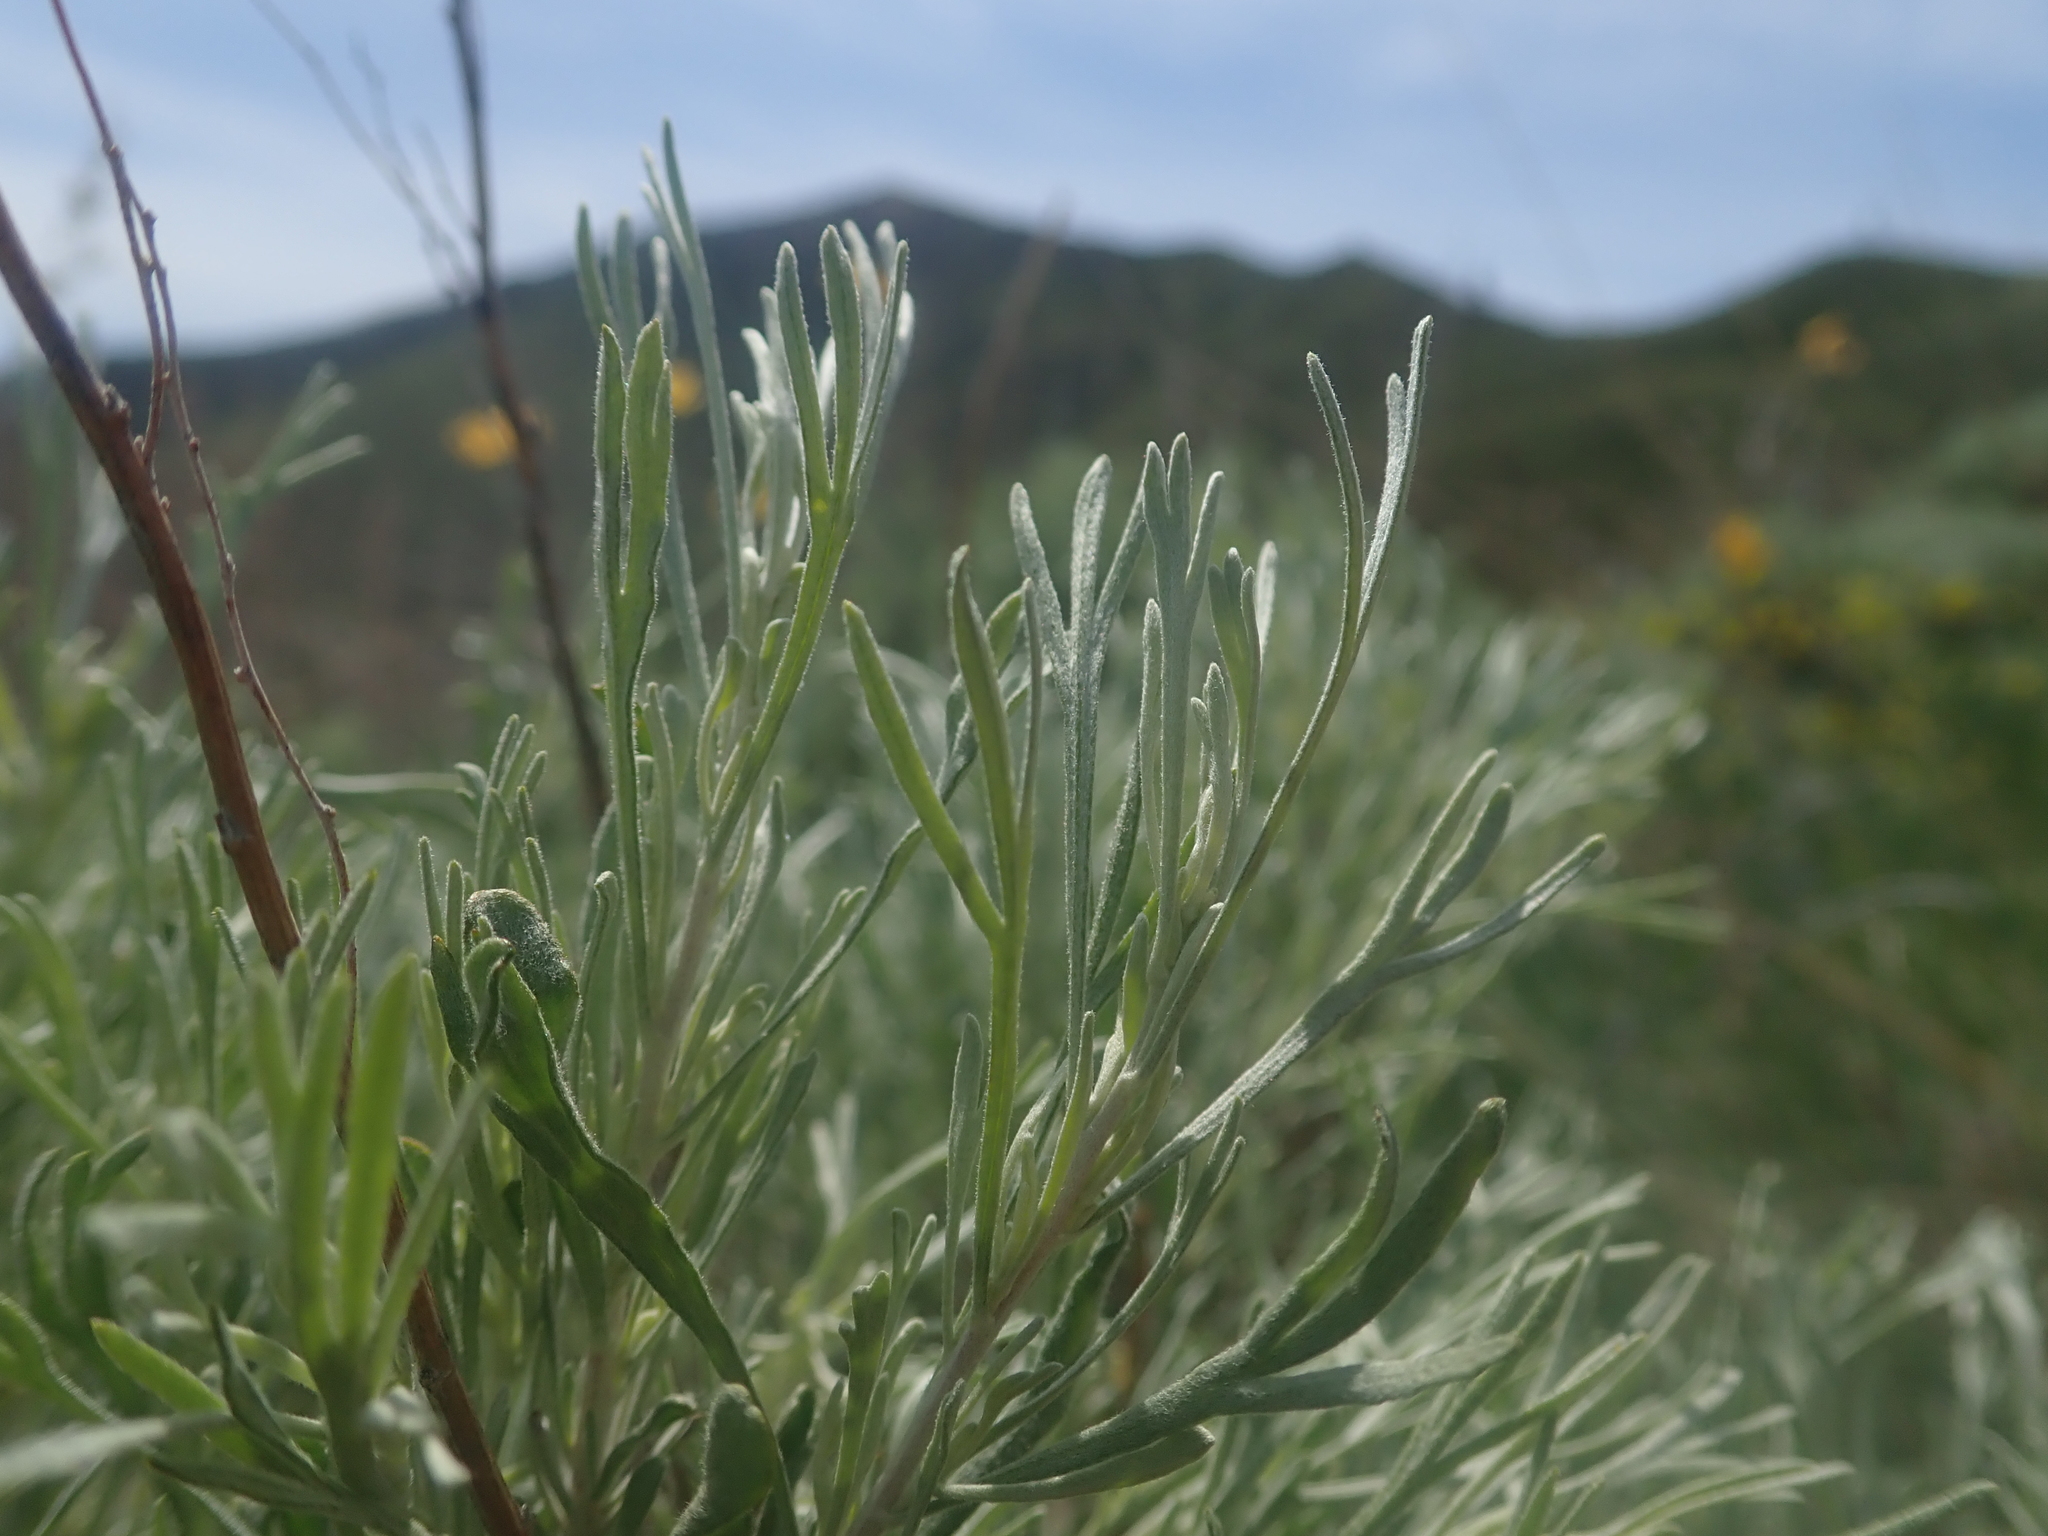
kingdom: Plantae
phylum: Tracheophyta
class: Magnoliopsida
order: Asterales
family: Asteraceae
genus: Artemisia
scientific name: Artemisia tripartita
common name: Three-tip sagebrush
